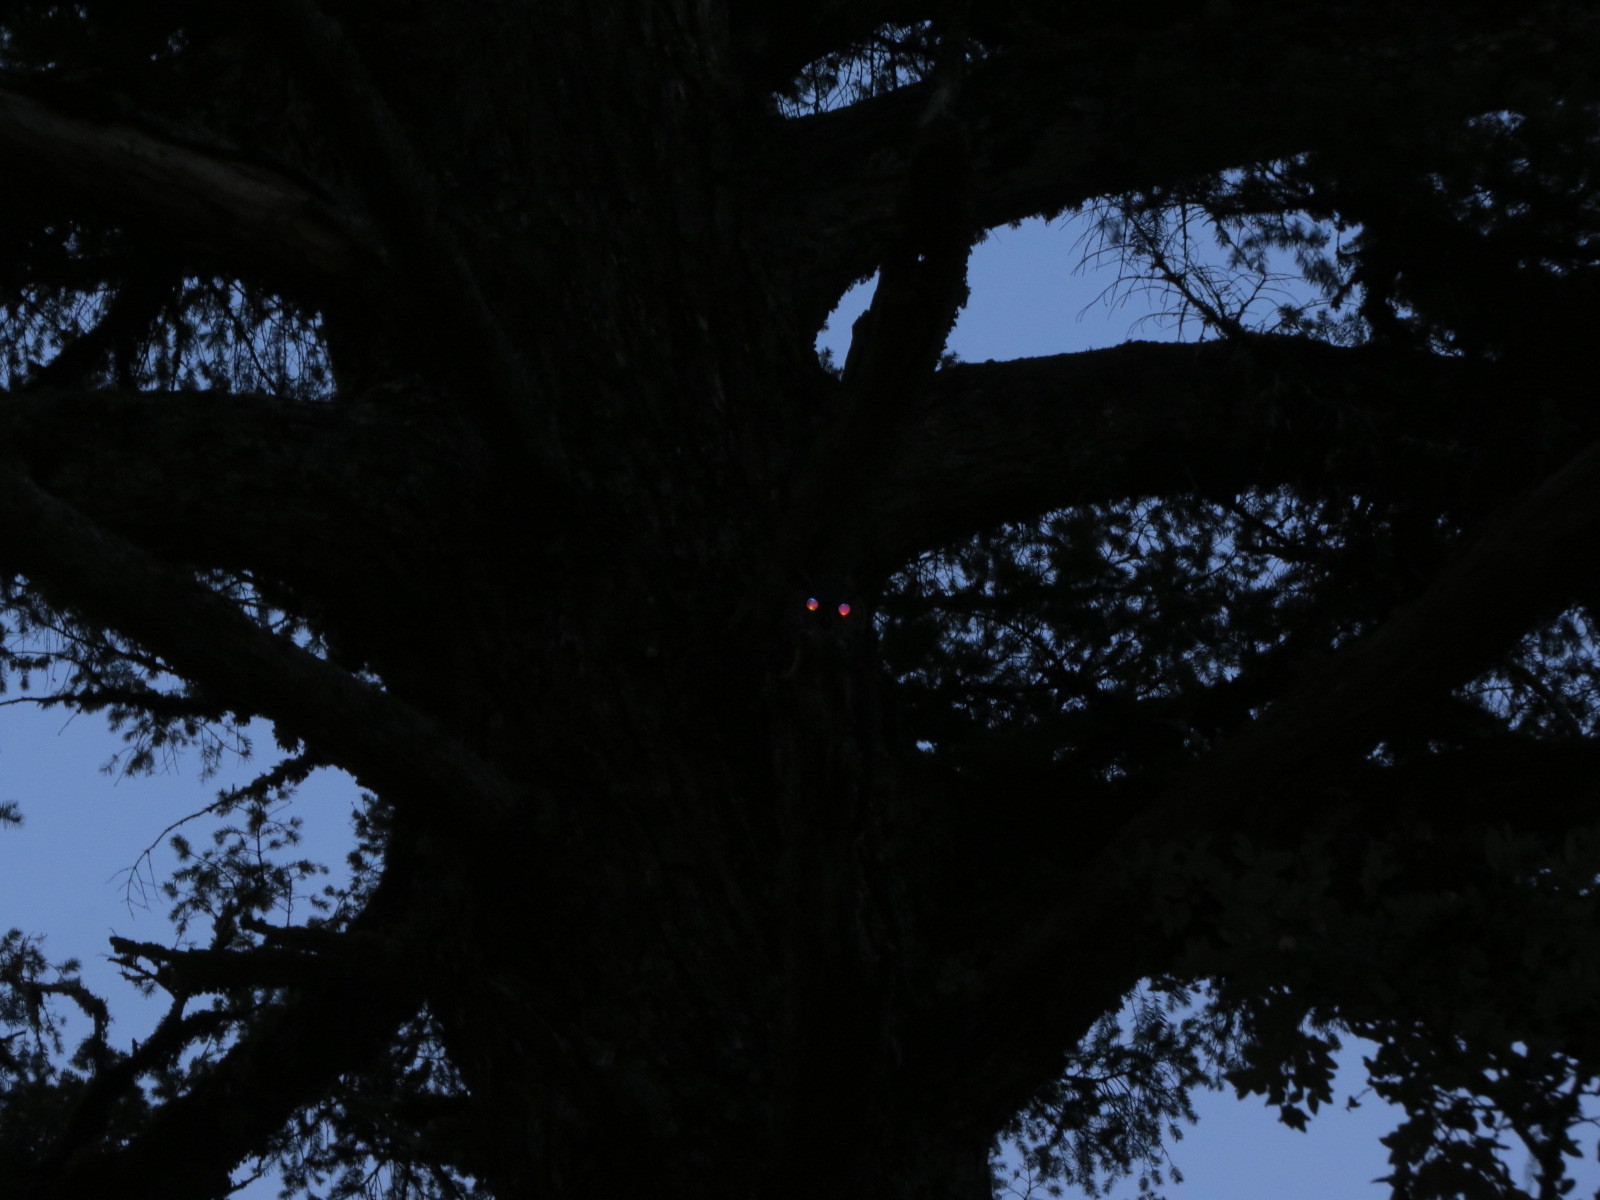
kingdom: Animalia
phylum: Chordata
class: Aves
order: Strigiformes
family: Strigidae
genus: Bubo
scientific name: Bubo virginianus
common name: Great horned owl
